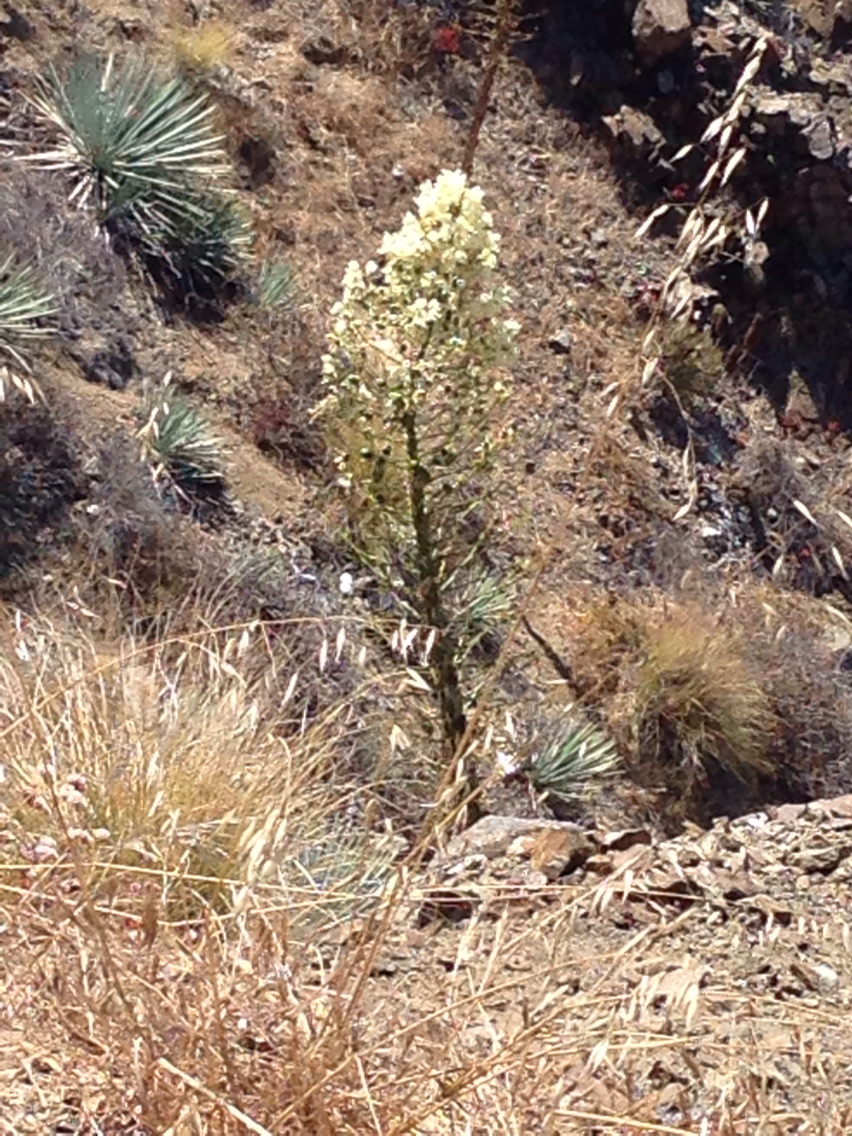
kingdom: Plantae
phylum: Tracheophyta
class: Liliopsida
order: Asparagales
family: Asparagaceae
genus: Hesperoyucca
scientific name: Hesperoyucca whipplei
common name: Our lord's-candle
